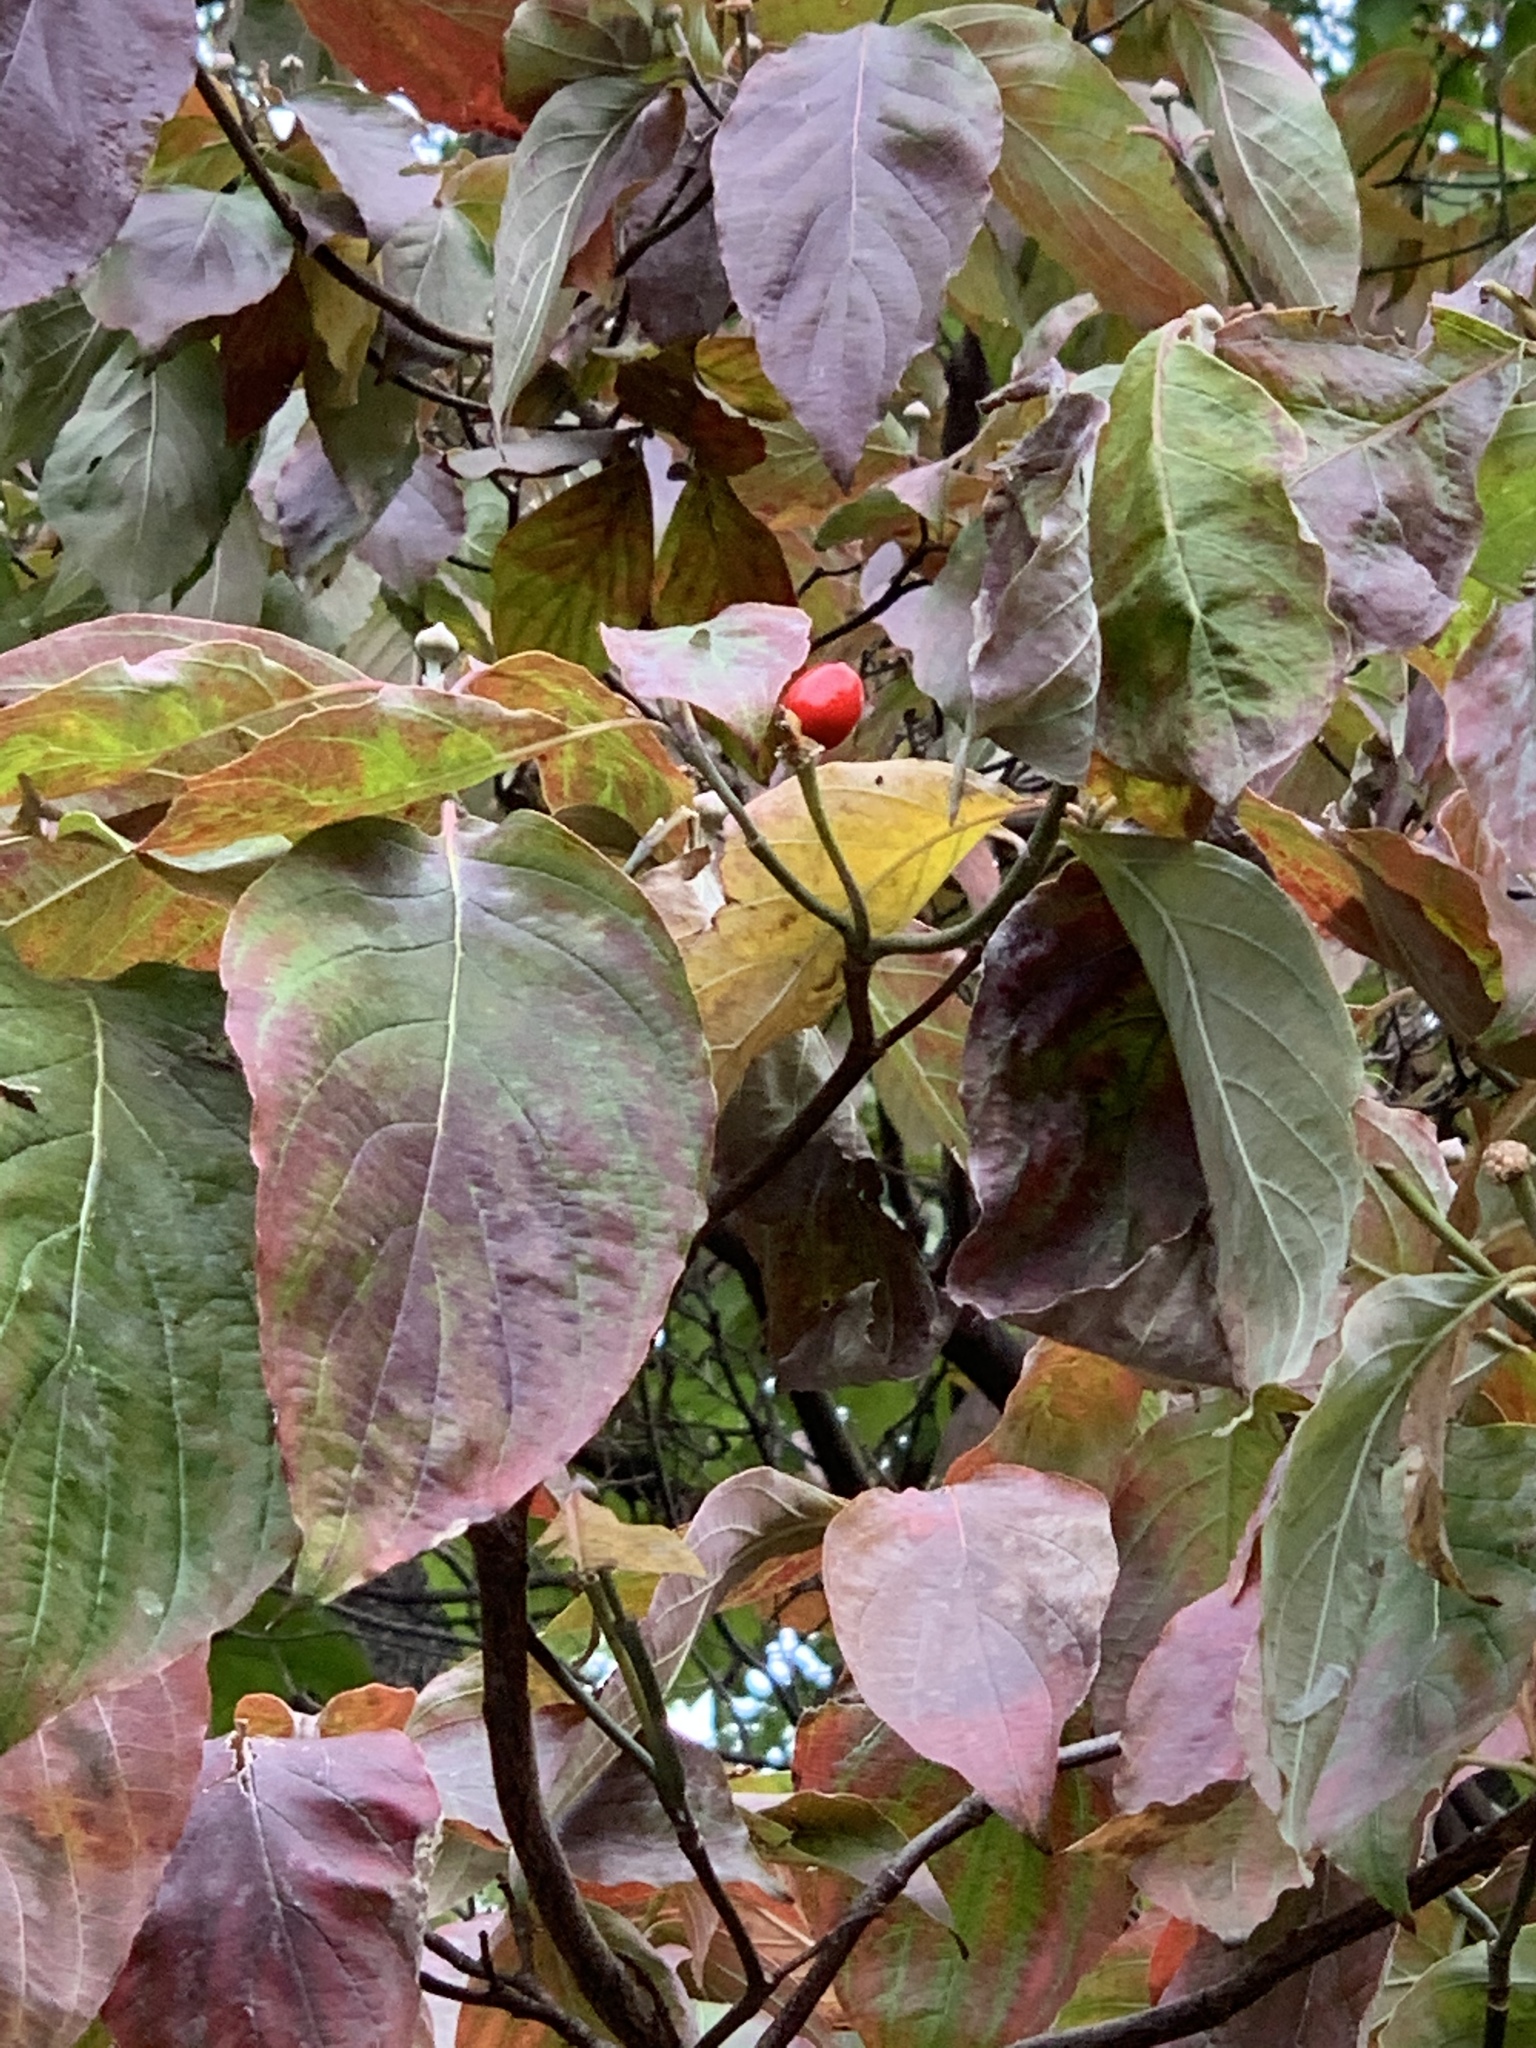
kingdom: Plantae
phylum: Tracheophyta
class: Magnoliopsida
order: Cornales
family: Cornaceae
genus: Cornus
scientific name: Cornus florida
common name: Flowering dogwood
